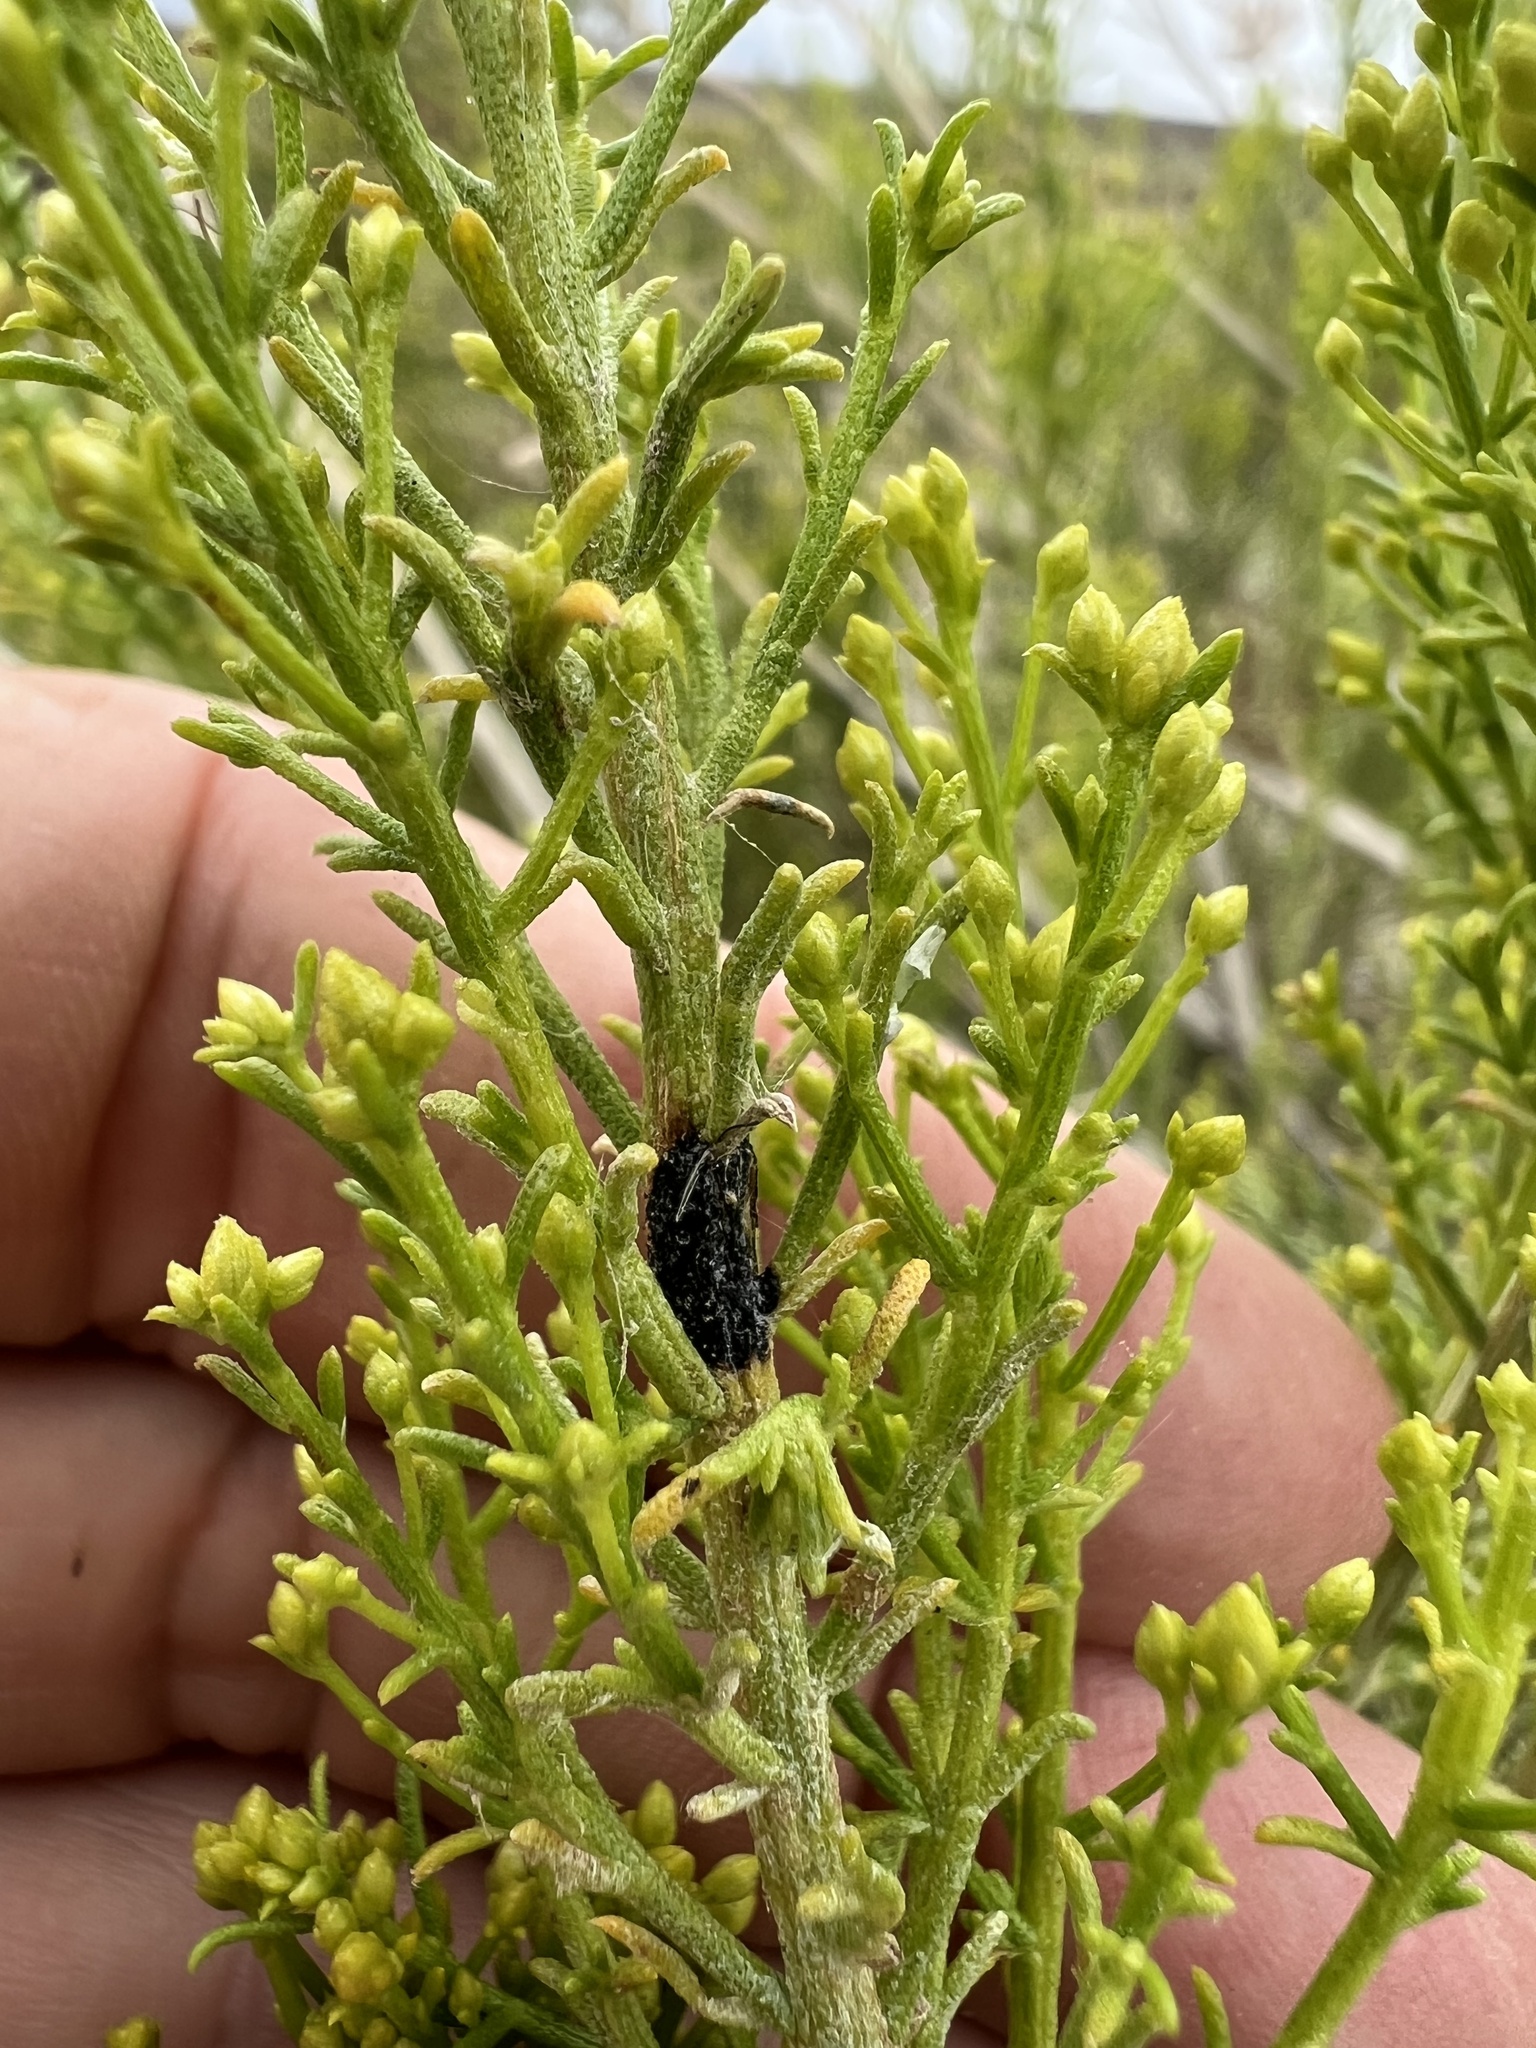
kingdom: Plantae
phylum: Tracheophyta
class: Magnoliopsida
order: Asterales
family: Asteraceae
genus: Ericameria
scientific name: Ericameria paniculata
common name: Punctate rabbitbrush
